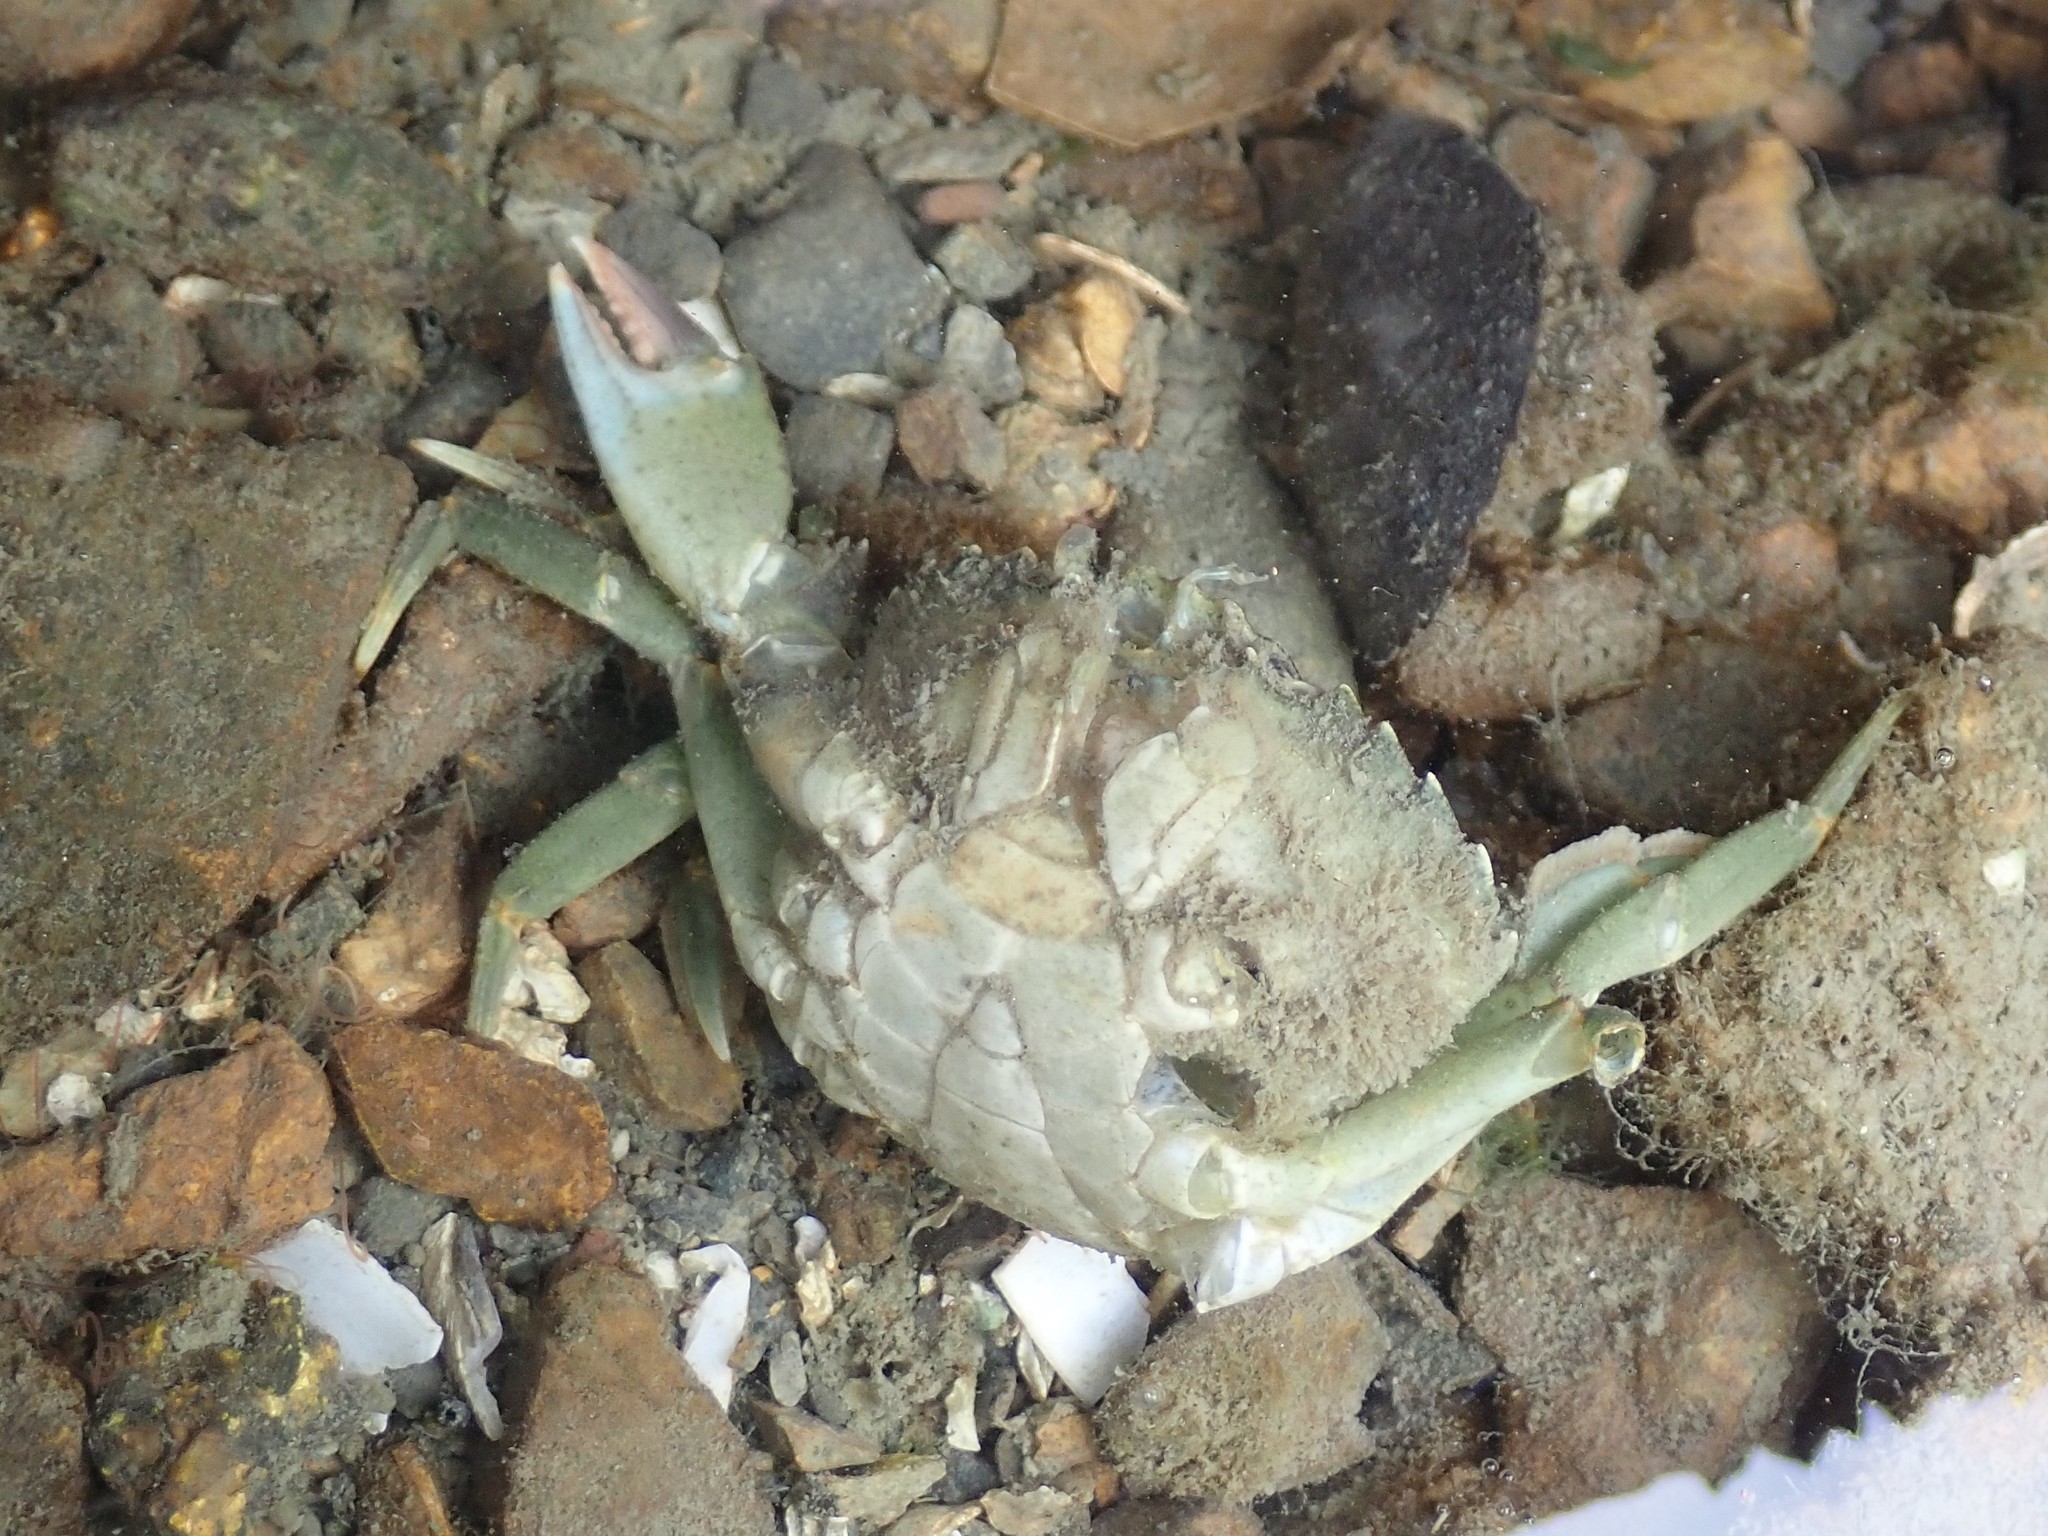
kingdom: Animalia
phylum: Arthropoda
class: Malacostraca
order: Decapoda
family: Carcinidae
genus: Carcinus
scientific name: Carcinus maenas
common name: European green crab
